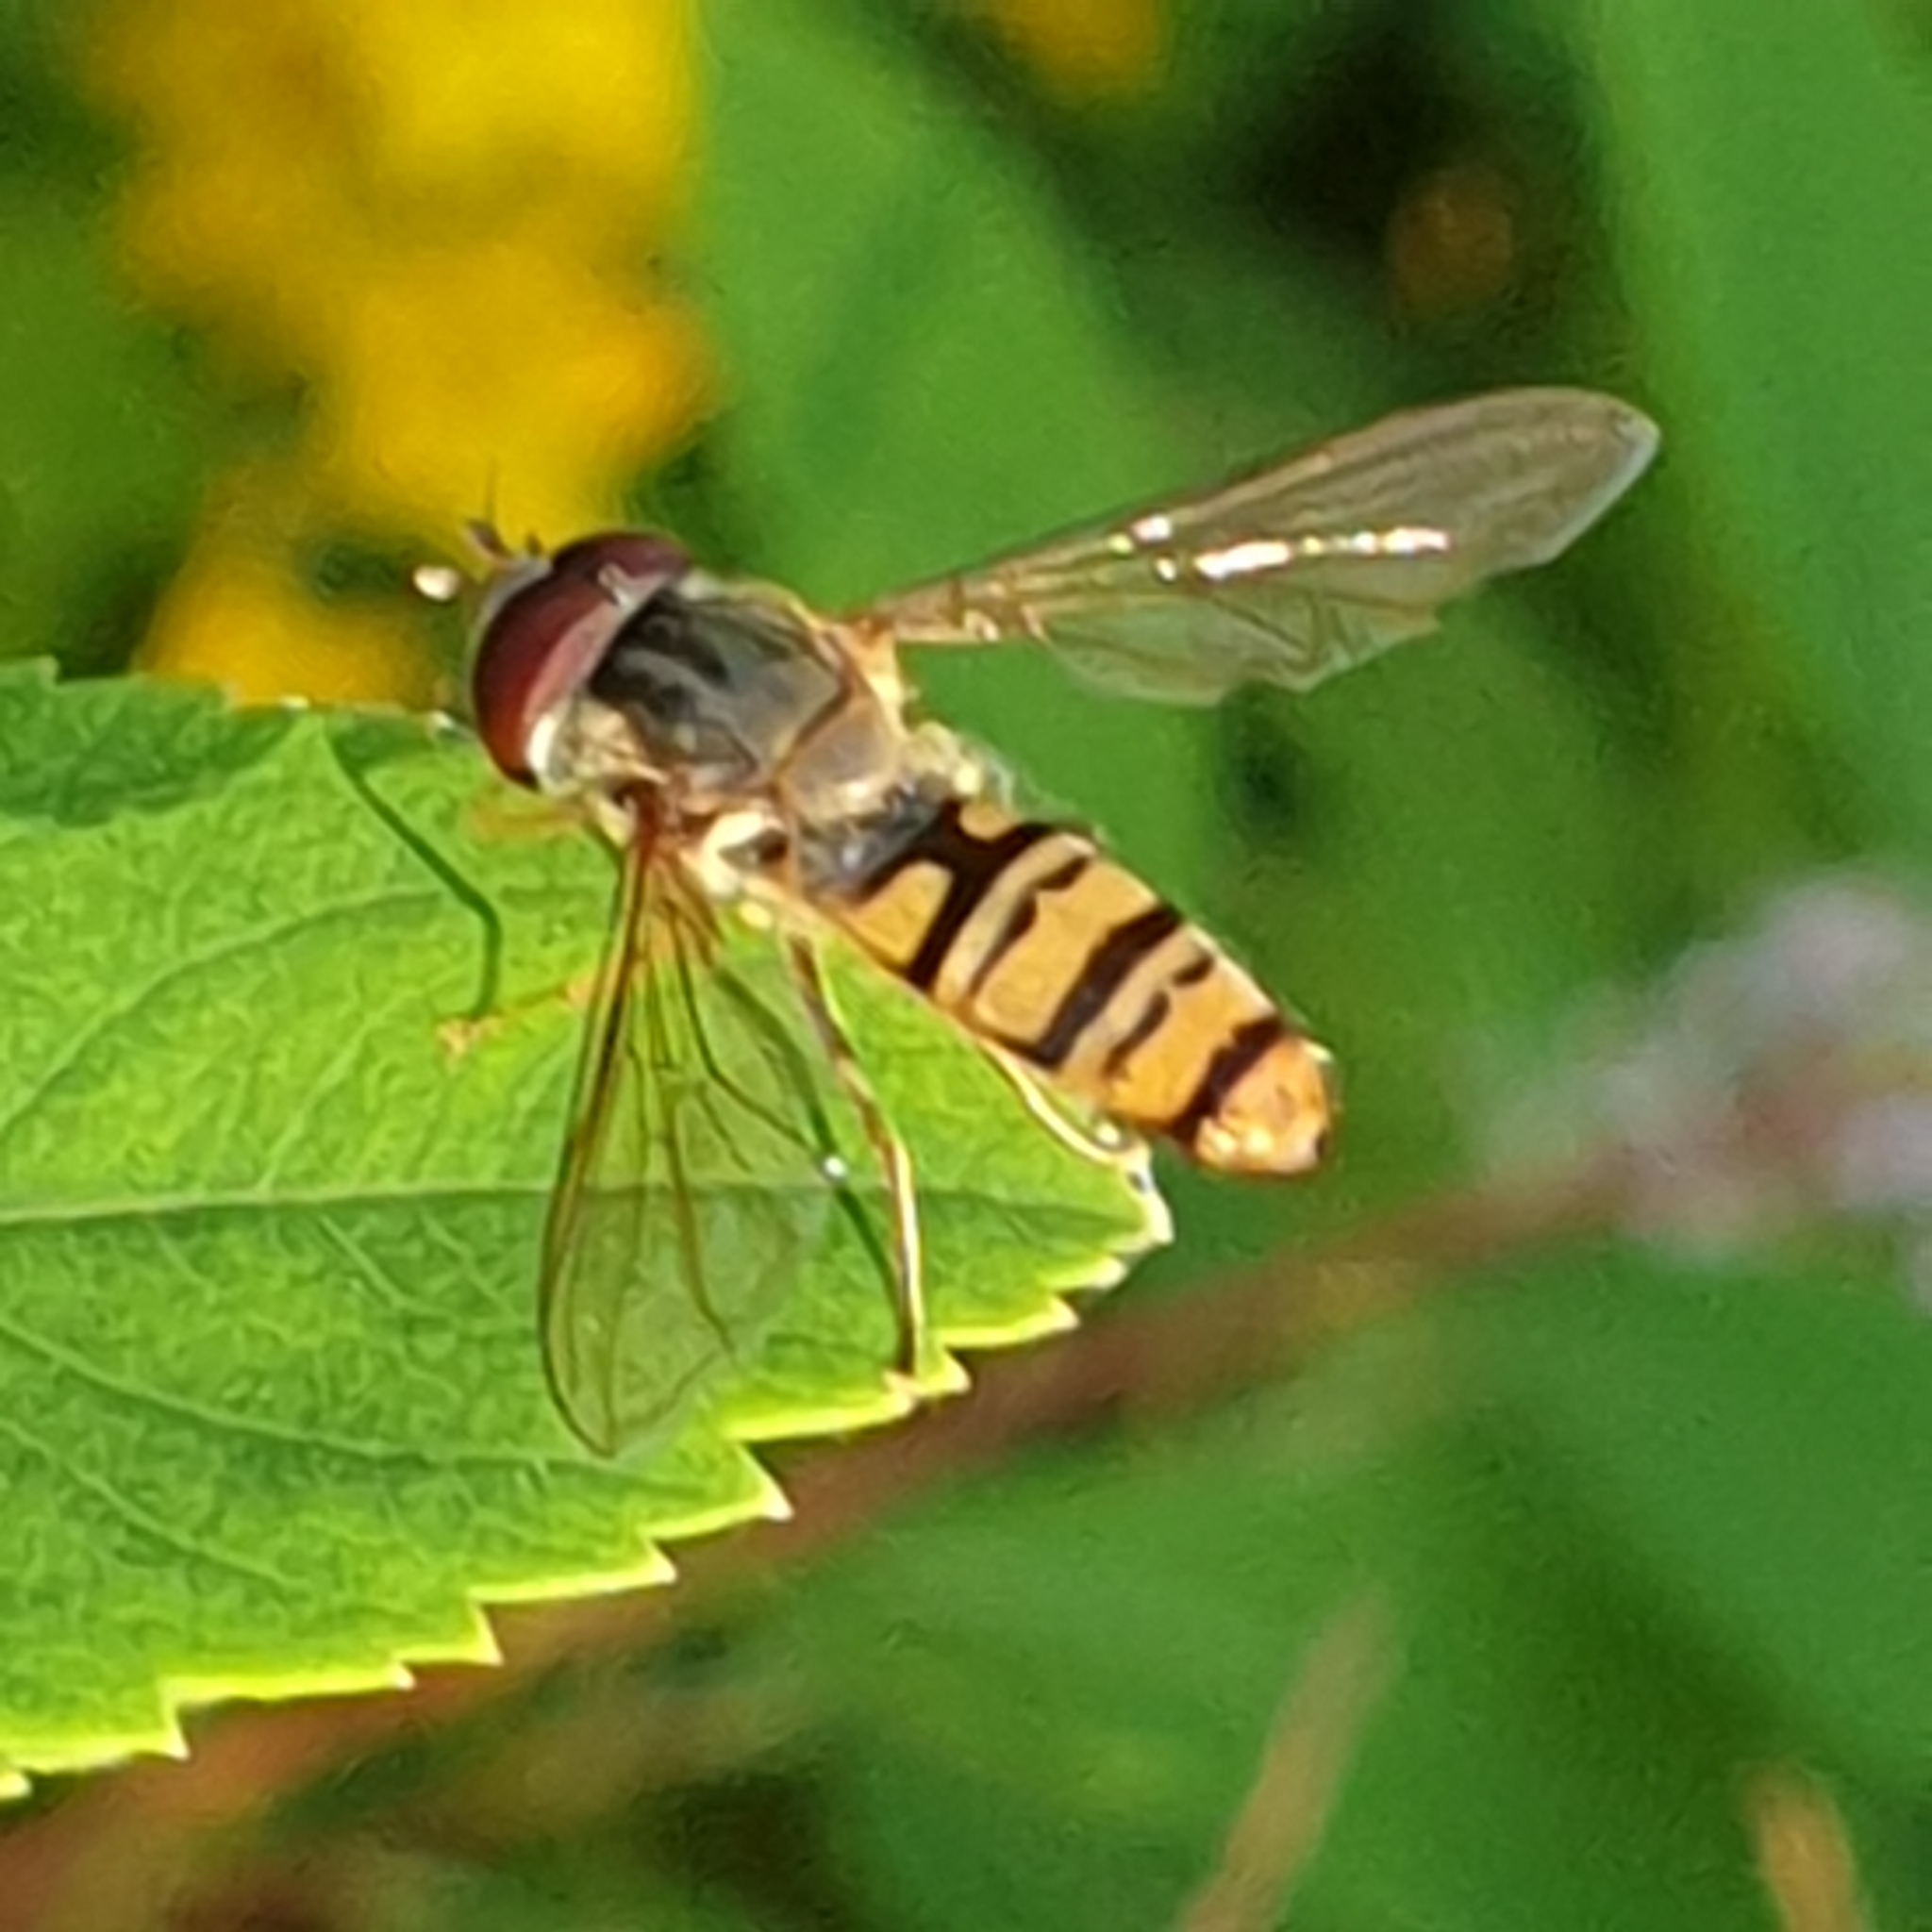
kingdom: Animalia
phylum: Arthropoda
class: Insecta
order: Diptera
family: Syrphidae
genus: Episyrphus
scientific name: Episyrphus balteatus
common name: Marmalade hoverfly
